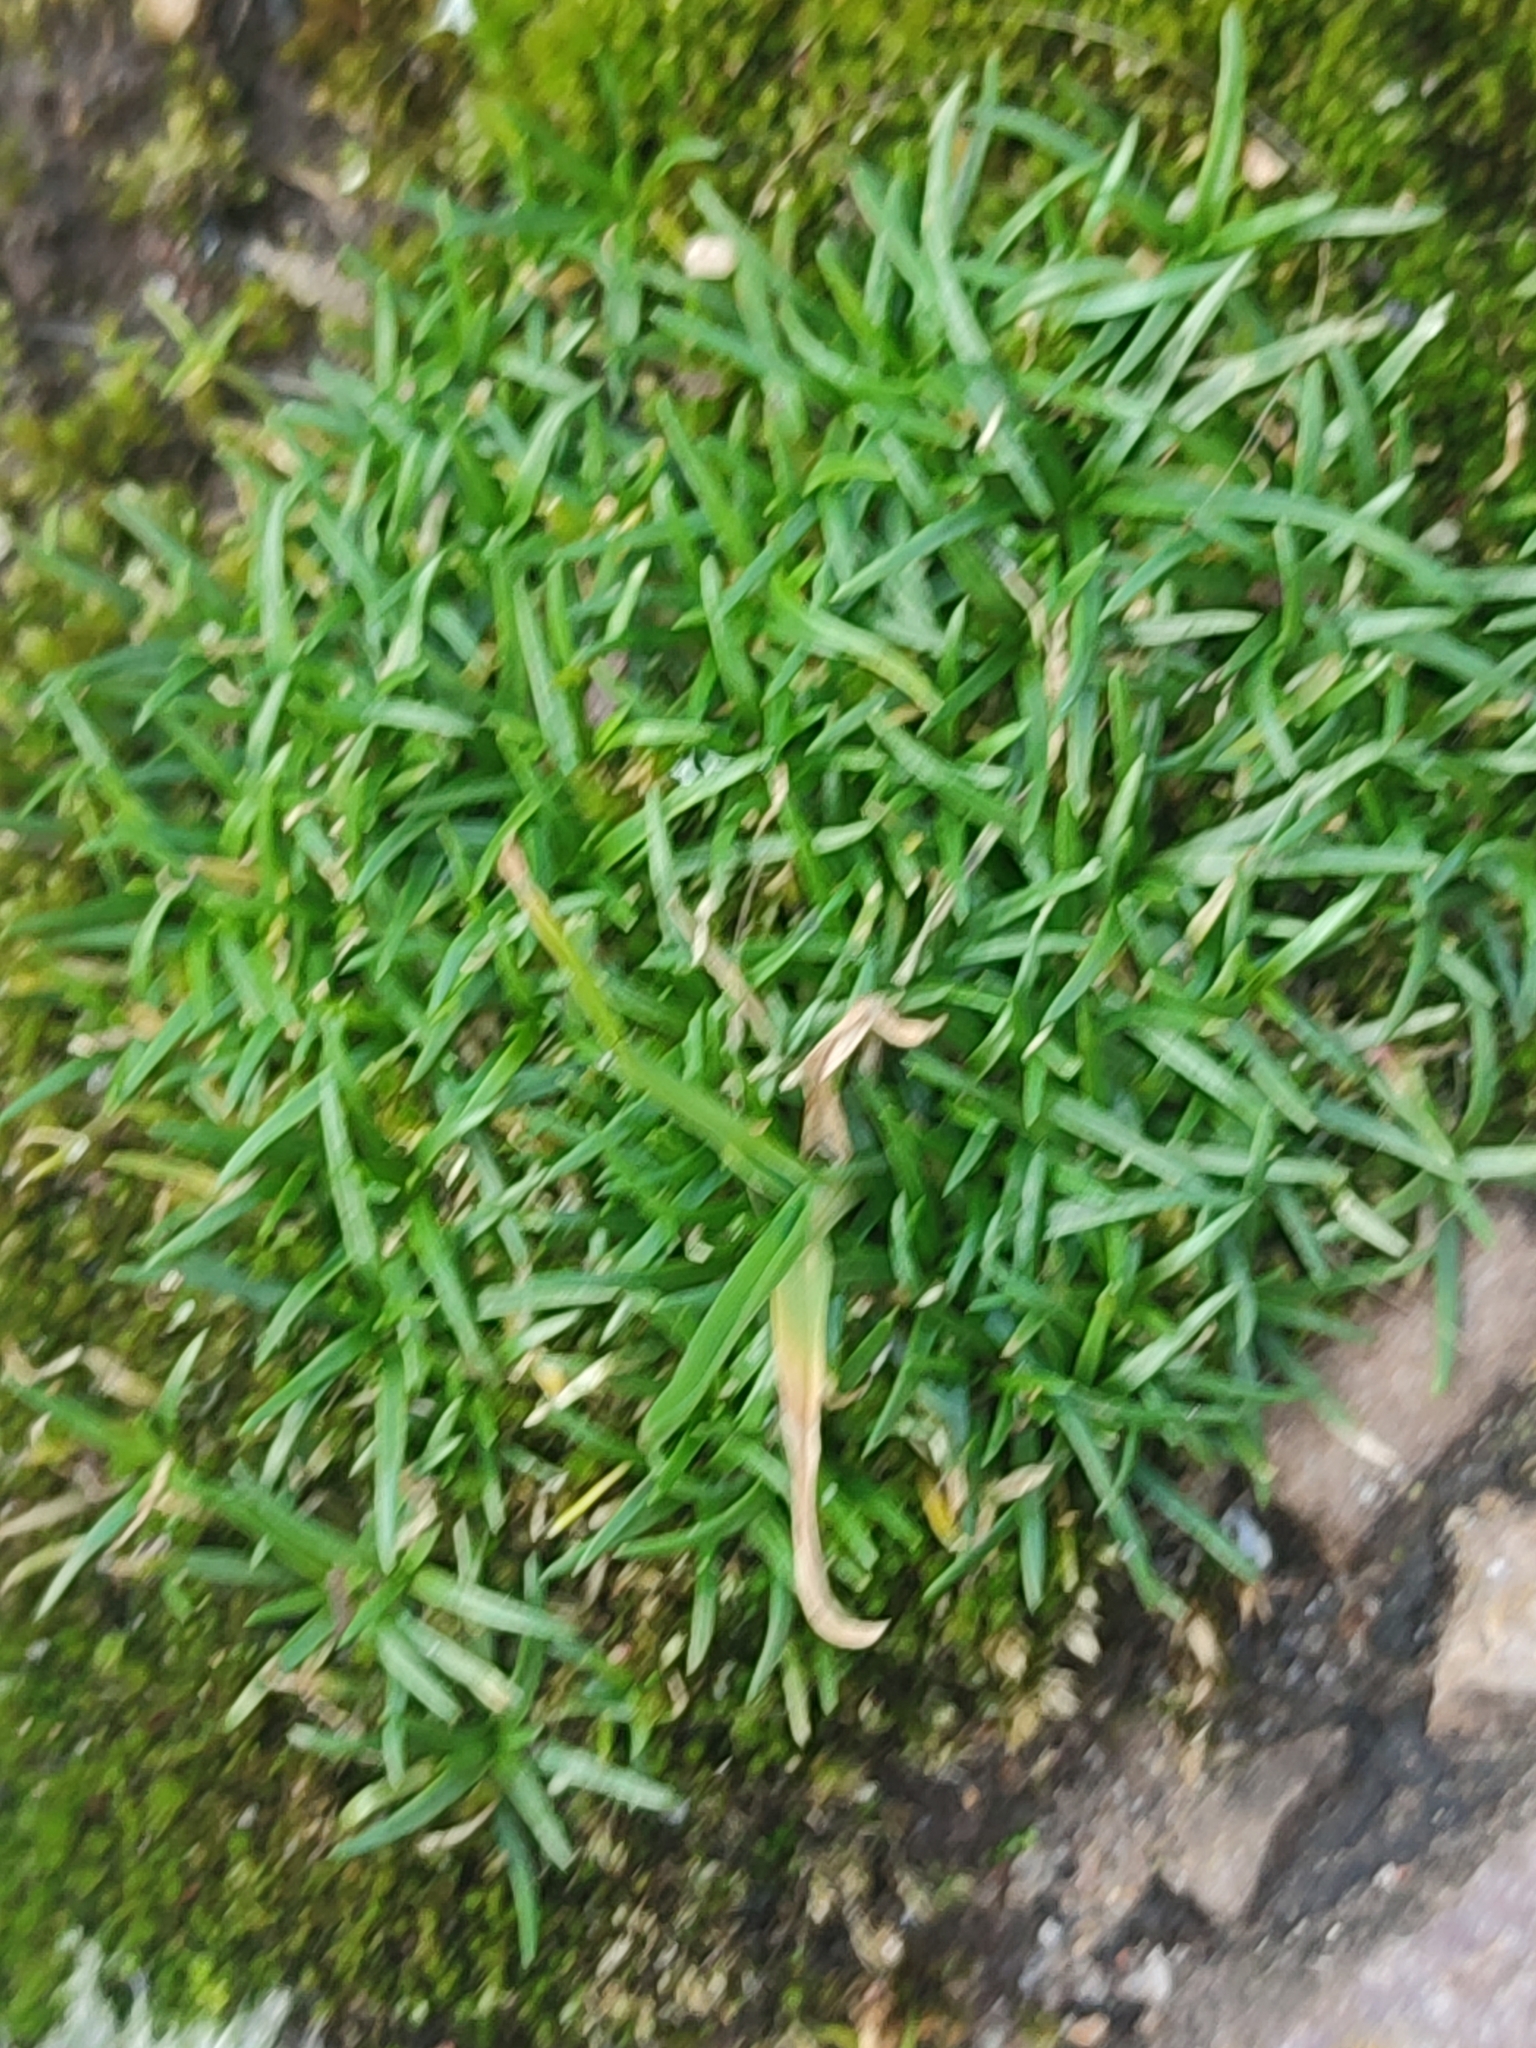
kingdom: Plantae
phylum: Tracheophyta
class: Magnoliopsida
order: Caryophyllales
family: Caryophyllaceae
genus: Sagina
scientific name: Sagina procumbens
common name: Procumbent pearlwort
